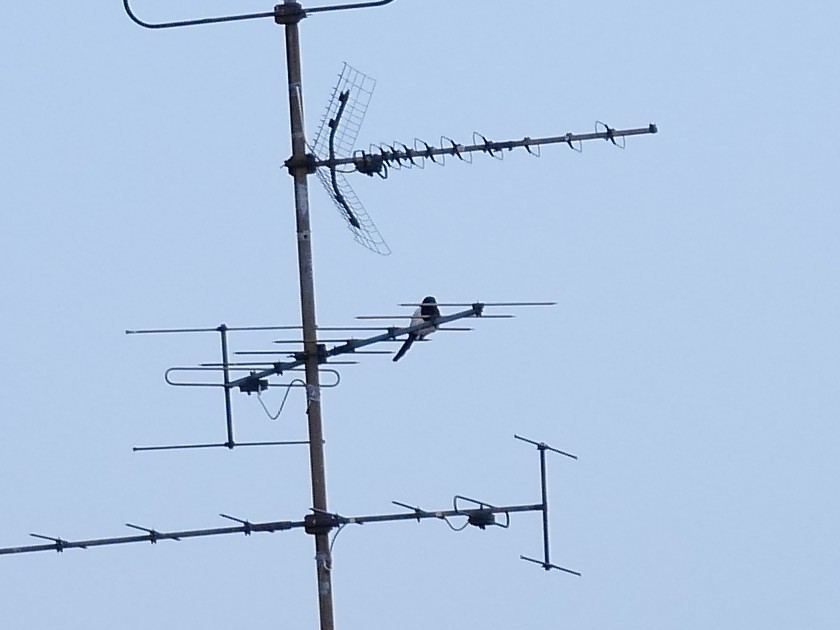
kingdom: Animalia
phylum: Chordata
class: Aves
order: Passeriformes
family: Corvidae
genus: Pica
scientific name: Pica pica
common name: Eurasian magpie
